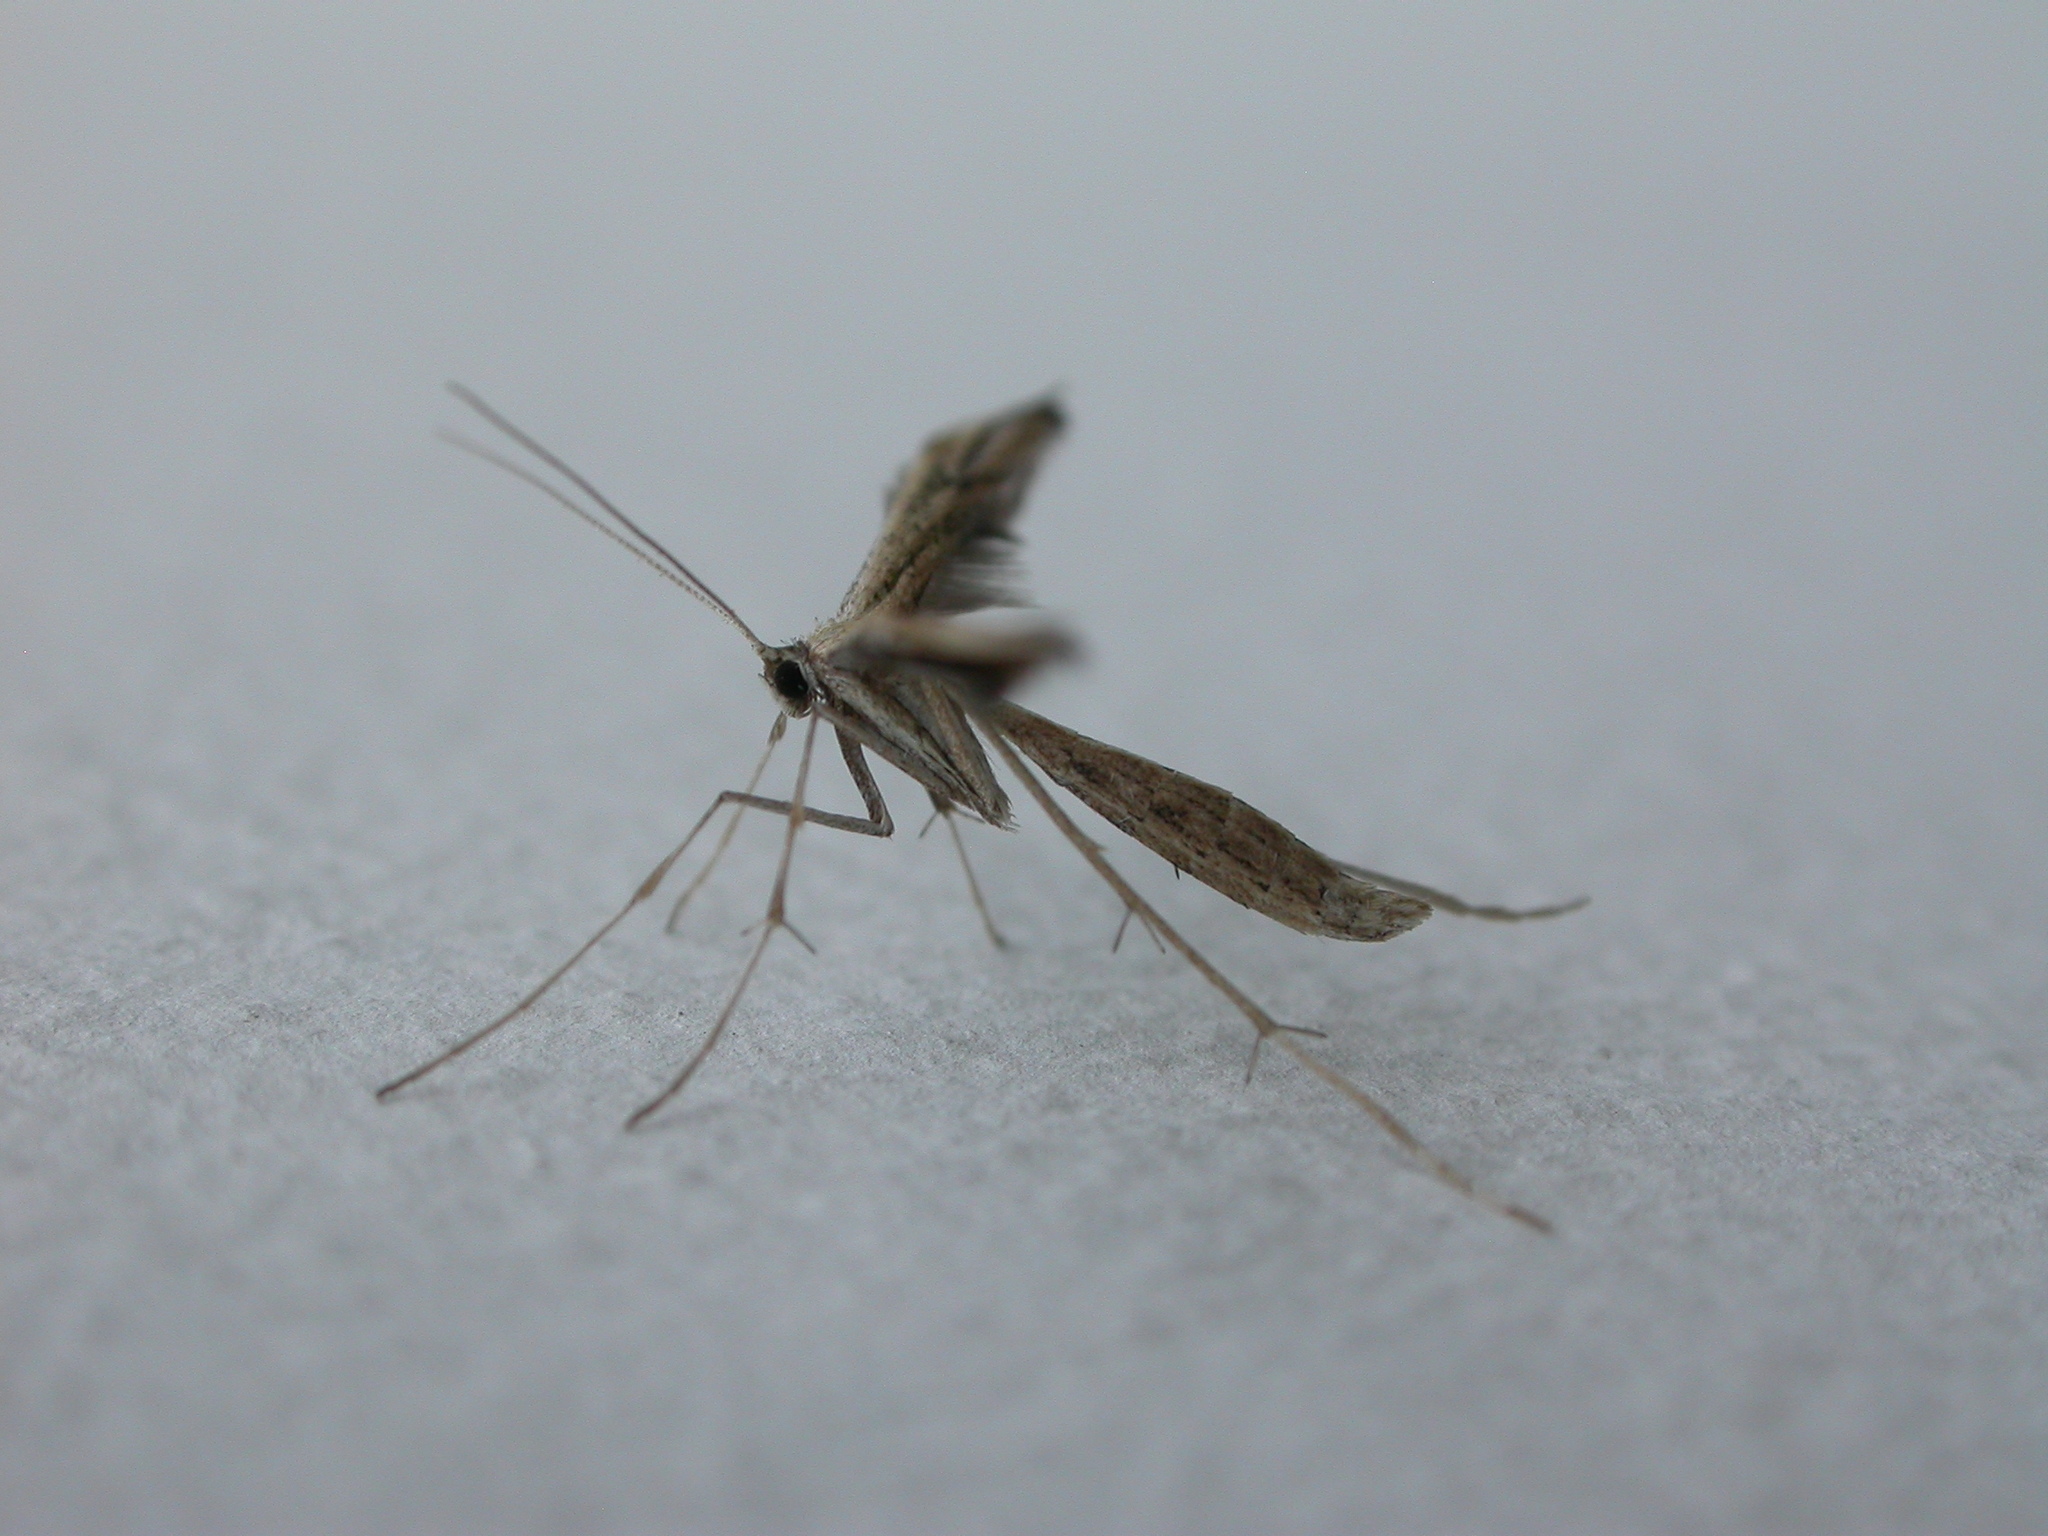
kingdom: Animalia
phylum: Arthropoda
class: Insecta
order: Lepidoptera
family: Pterophoridae
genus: Emmelina
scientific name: Emmelina monodactyla
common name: Common plume
